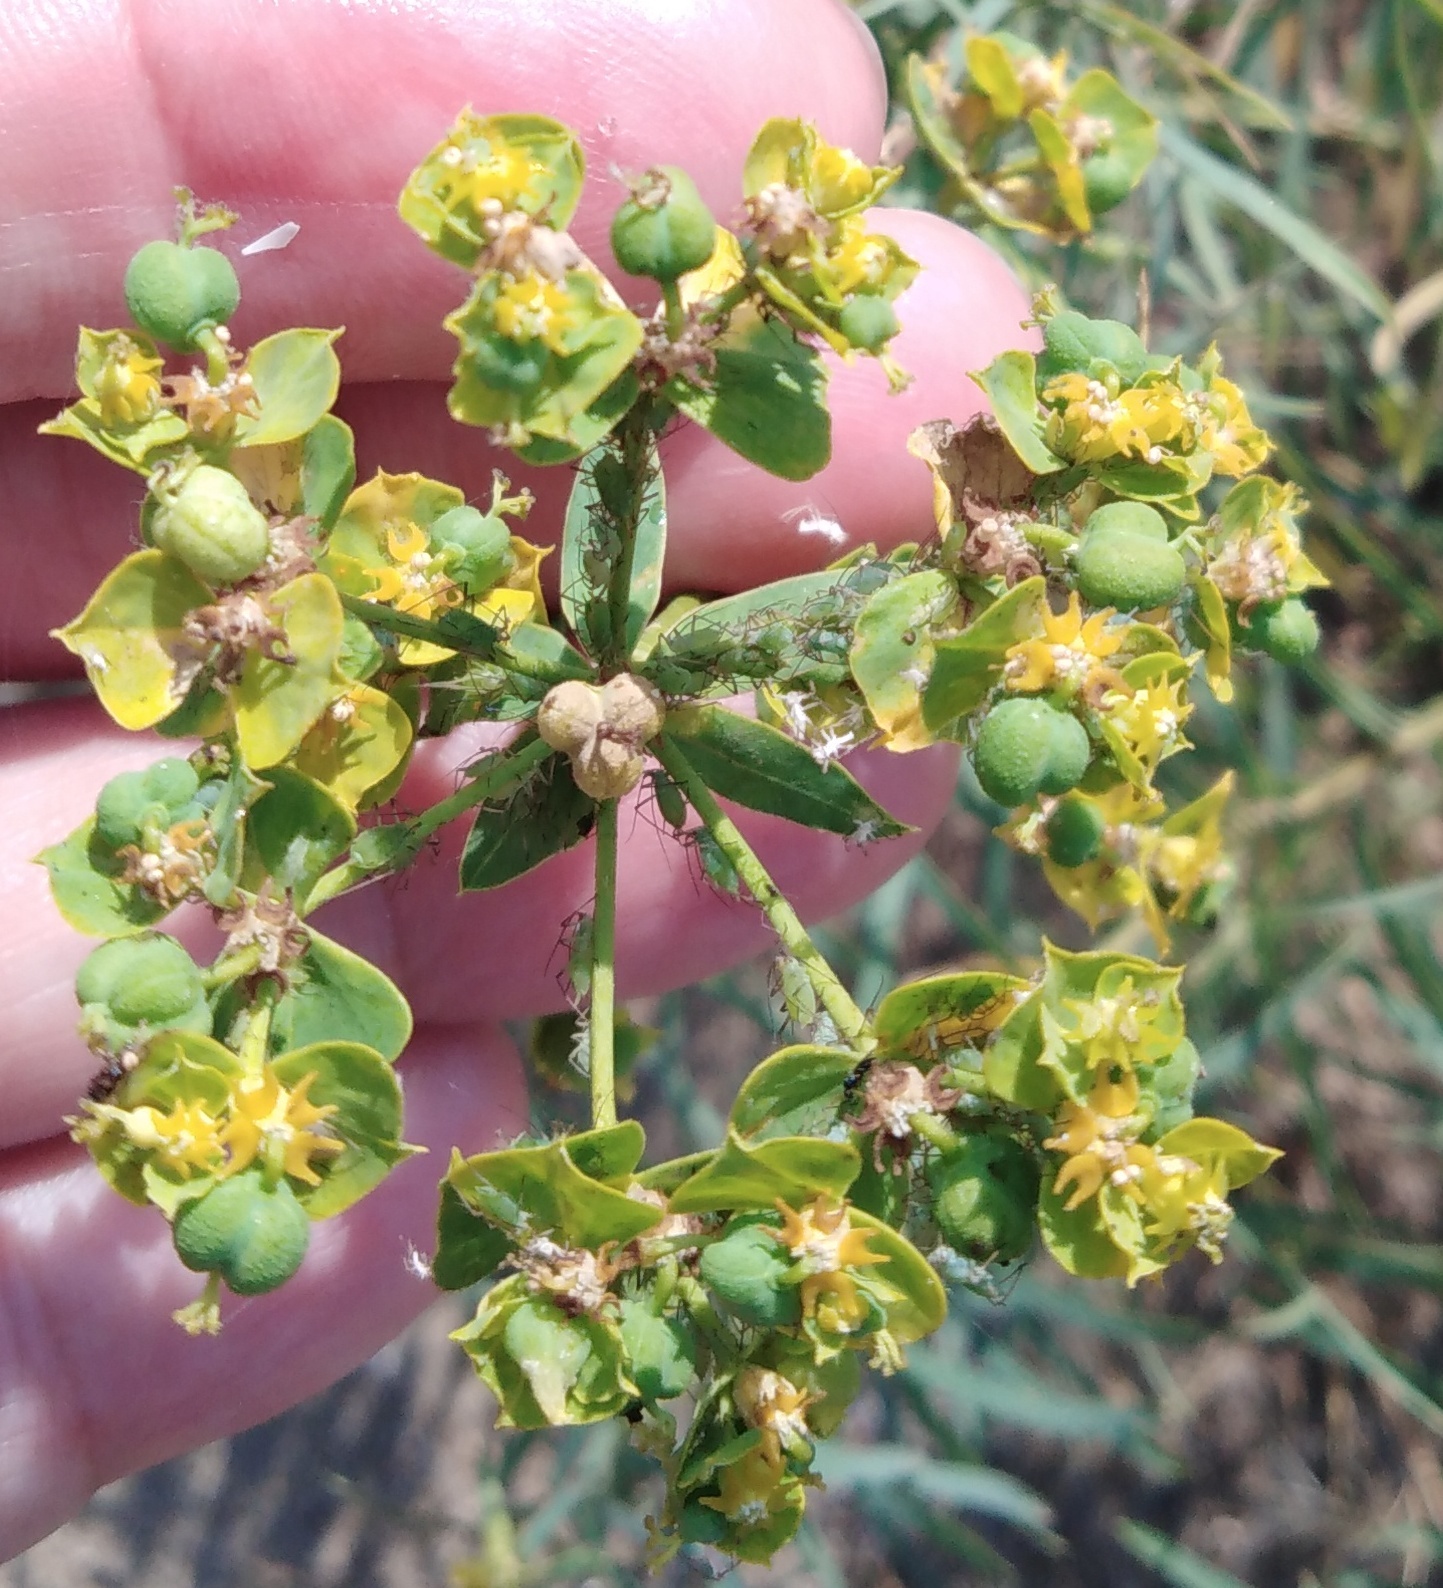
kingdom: Plantae
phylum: Tracheophyta
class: Magnoliopsida
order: Malpighiales
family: Euphorbiaceae
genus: Euphorbia
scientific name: Euphorbia virgata
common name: Leafy spurge
